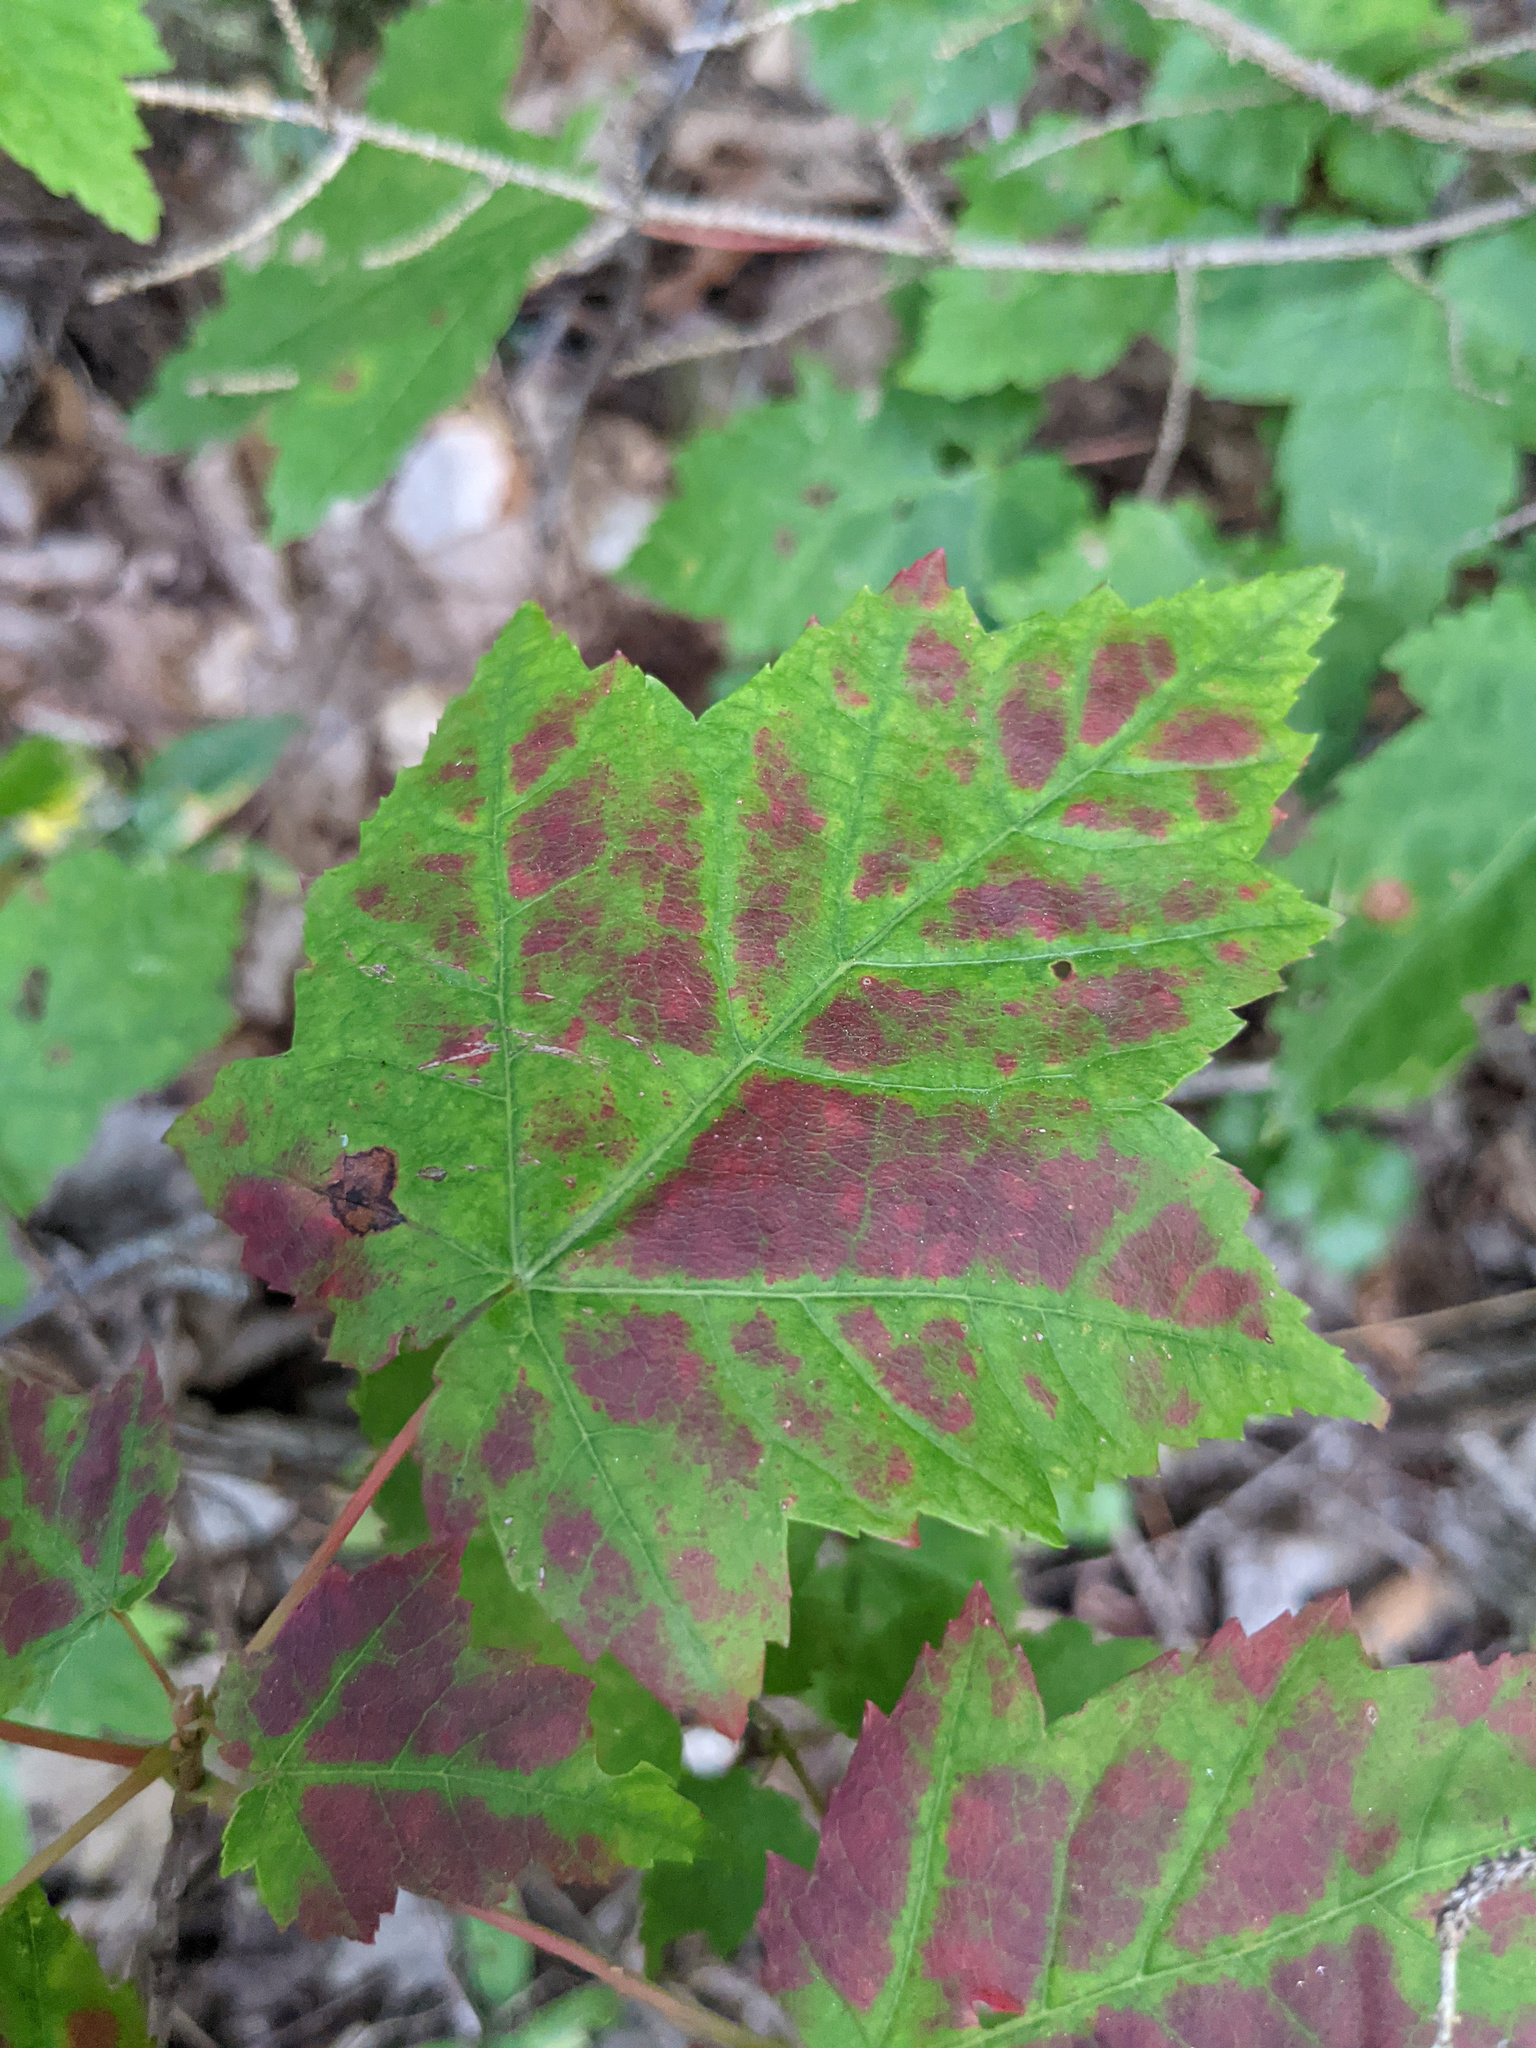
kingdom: Plantae
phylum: Tracheophyta
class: Magnoliopsida
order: Sapindales
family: Sapindaceae
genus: Acer
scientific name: Acer rubrum
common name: Red maple
